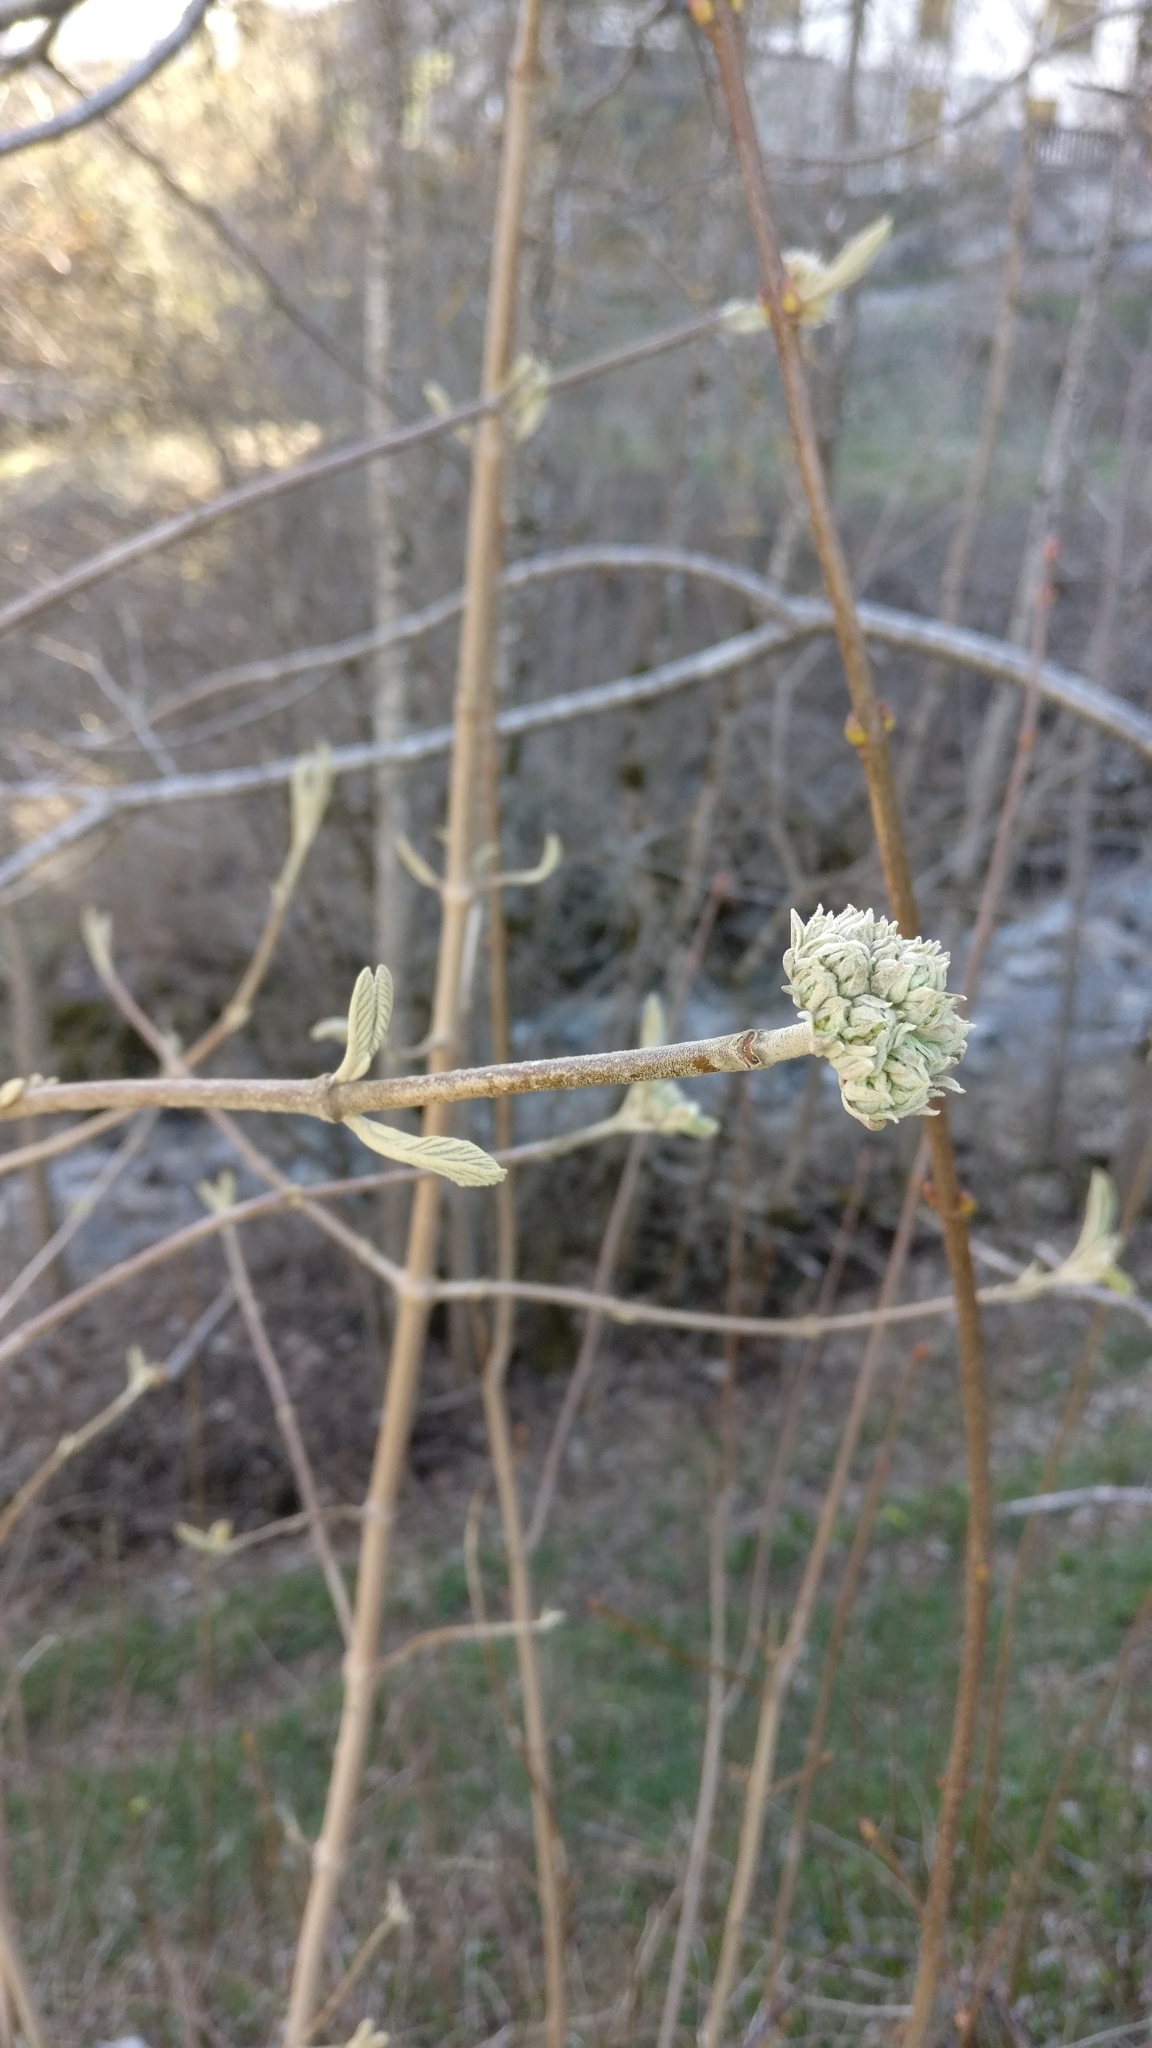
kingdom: Plantae
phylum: Tracheophyta
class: Magnoliopsida
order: Dipsacales
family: Viburnaceae
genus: Viburnum
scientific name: Viburnum lantana
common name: Wayfaring tree
